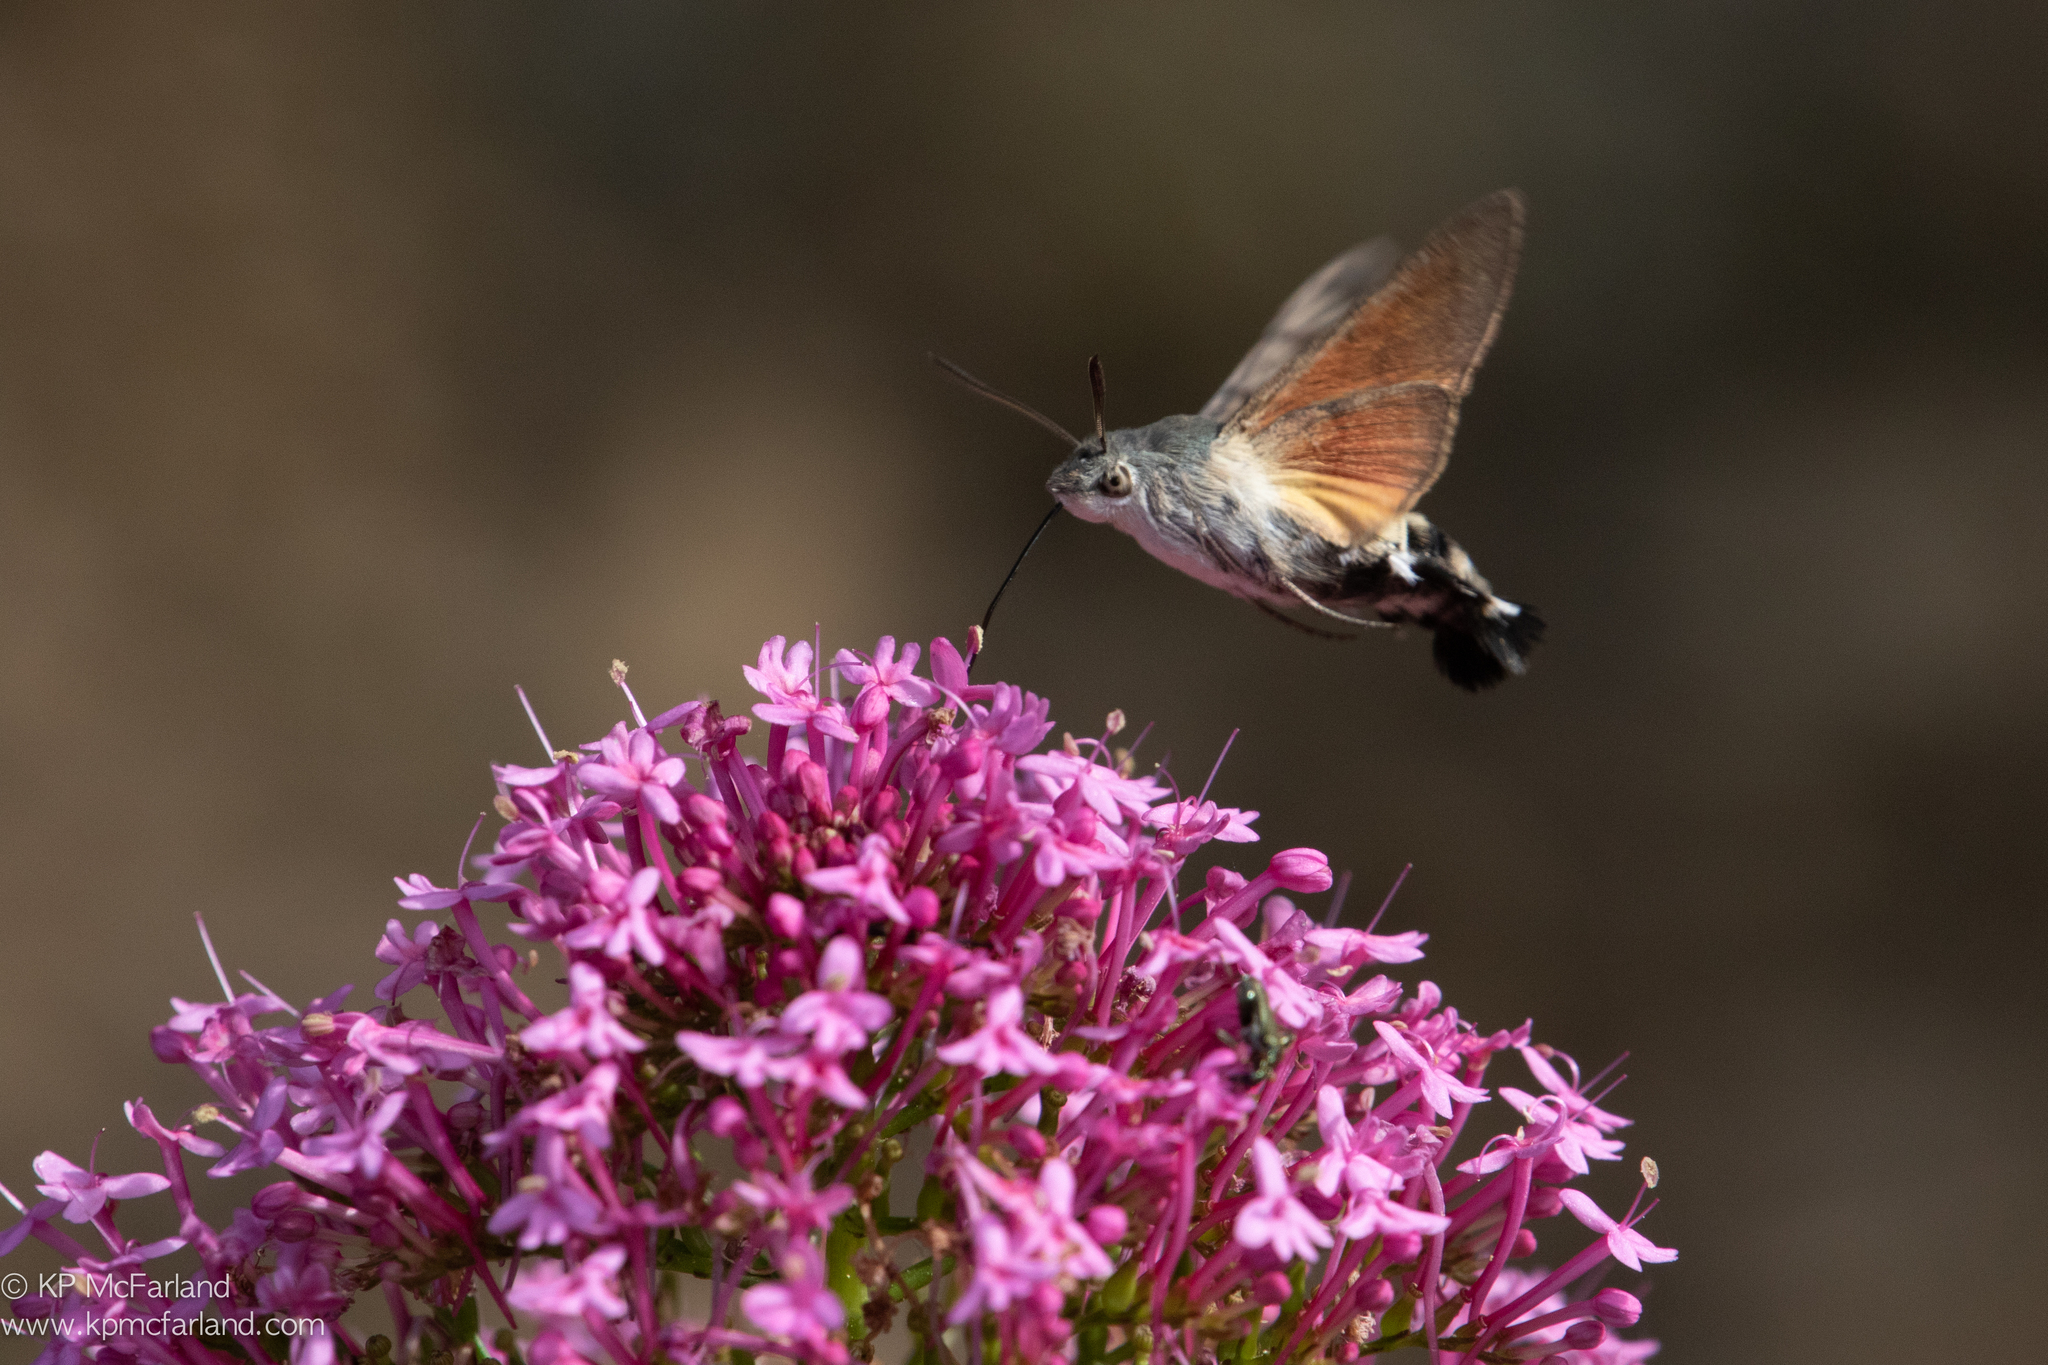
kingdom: Animalia
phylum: Arthropoda
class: Insecta
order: Lepidoptera
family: Sphingidae
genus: Macroglossum
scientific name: Macroglossum stellatarum
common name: Humming-bird hawk-moth
